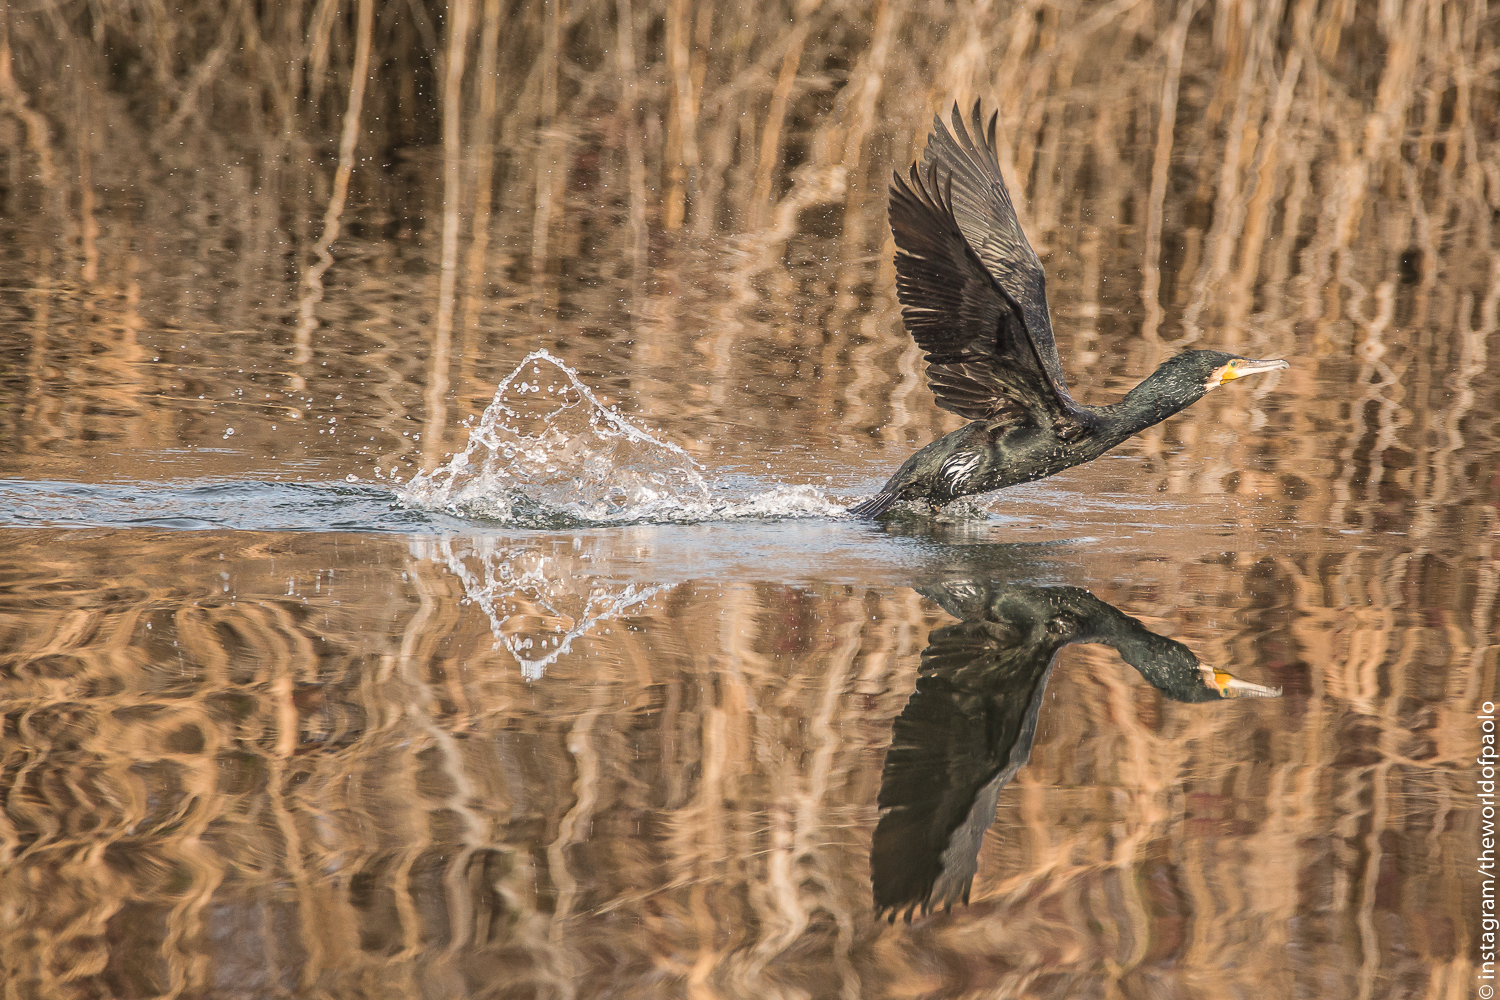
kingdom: Animalia
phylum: Chordata
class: Aves
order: Suliformes
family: Phalacrocoracidae
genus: Phalacrocorax
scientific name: Phalacrocorax carbo
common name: Great cormorant
